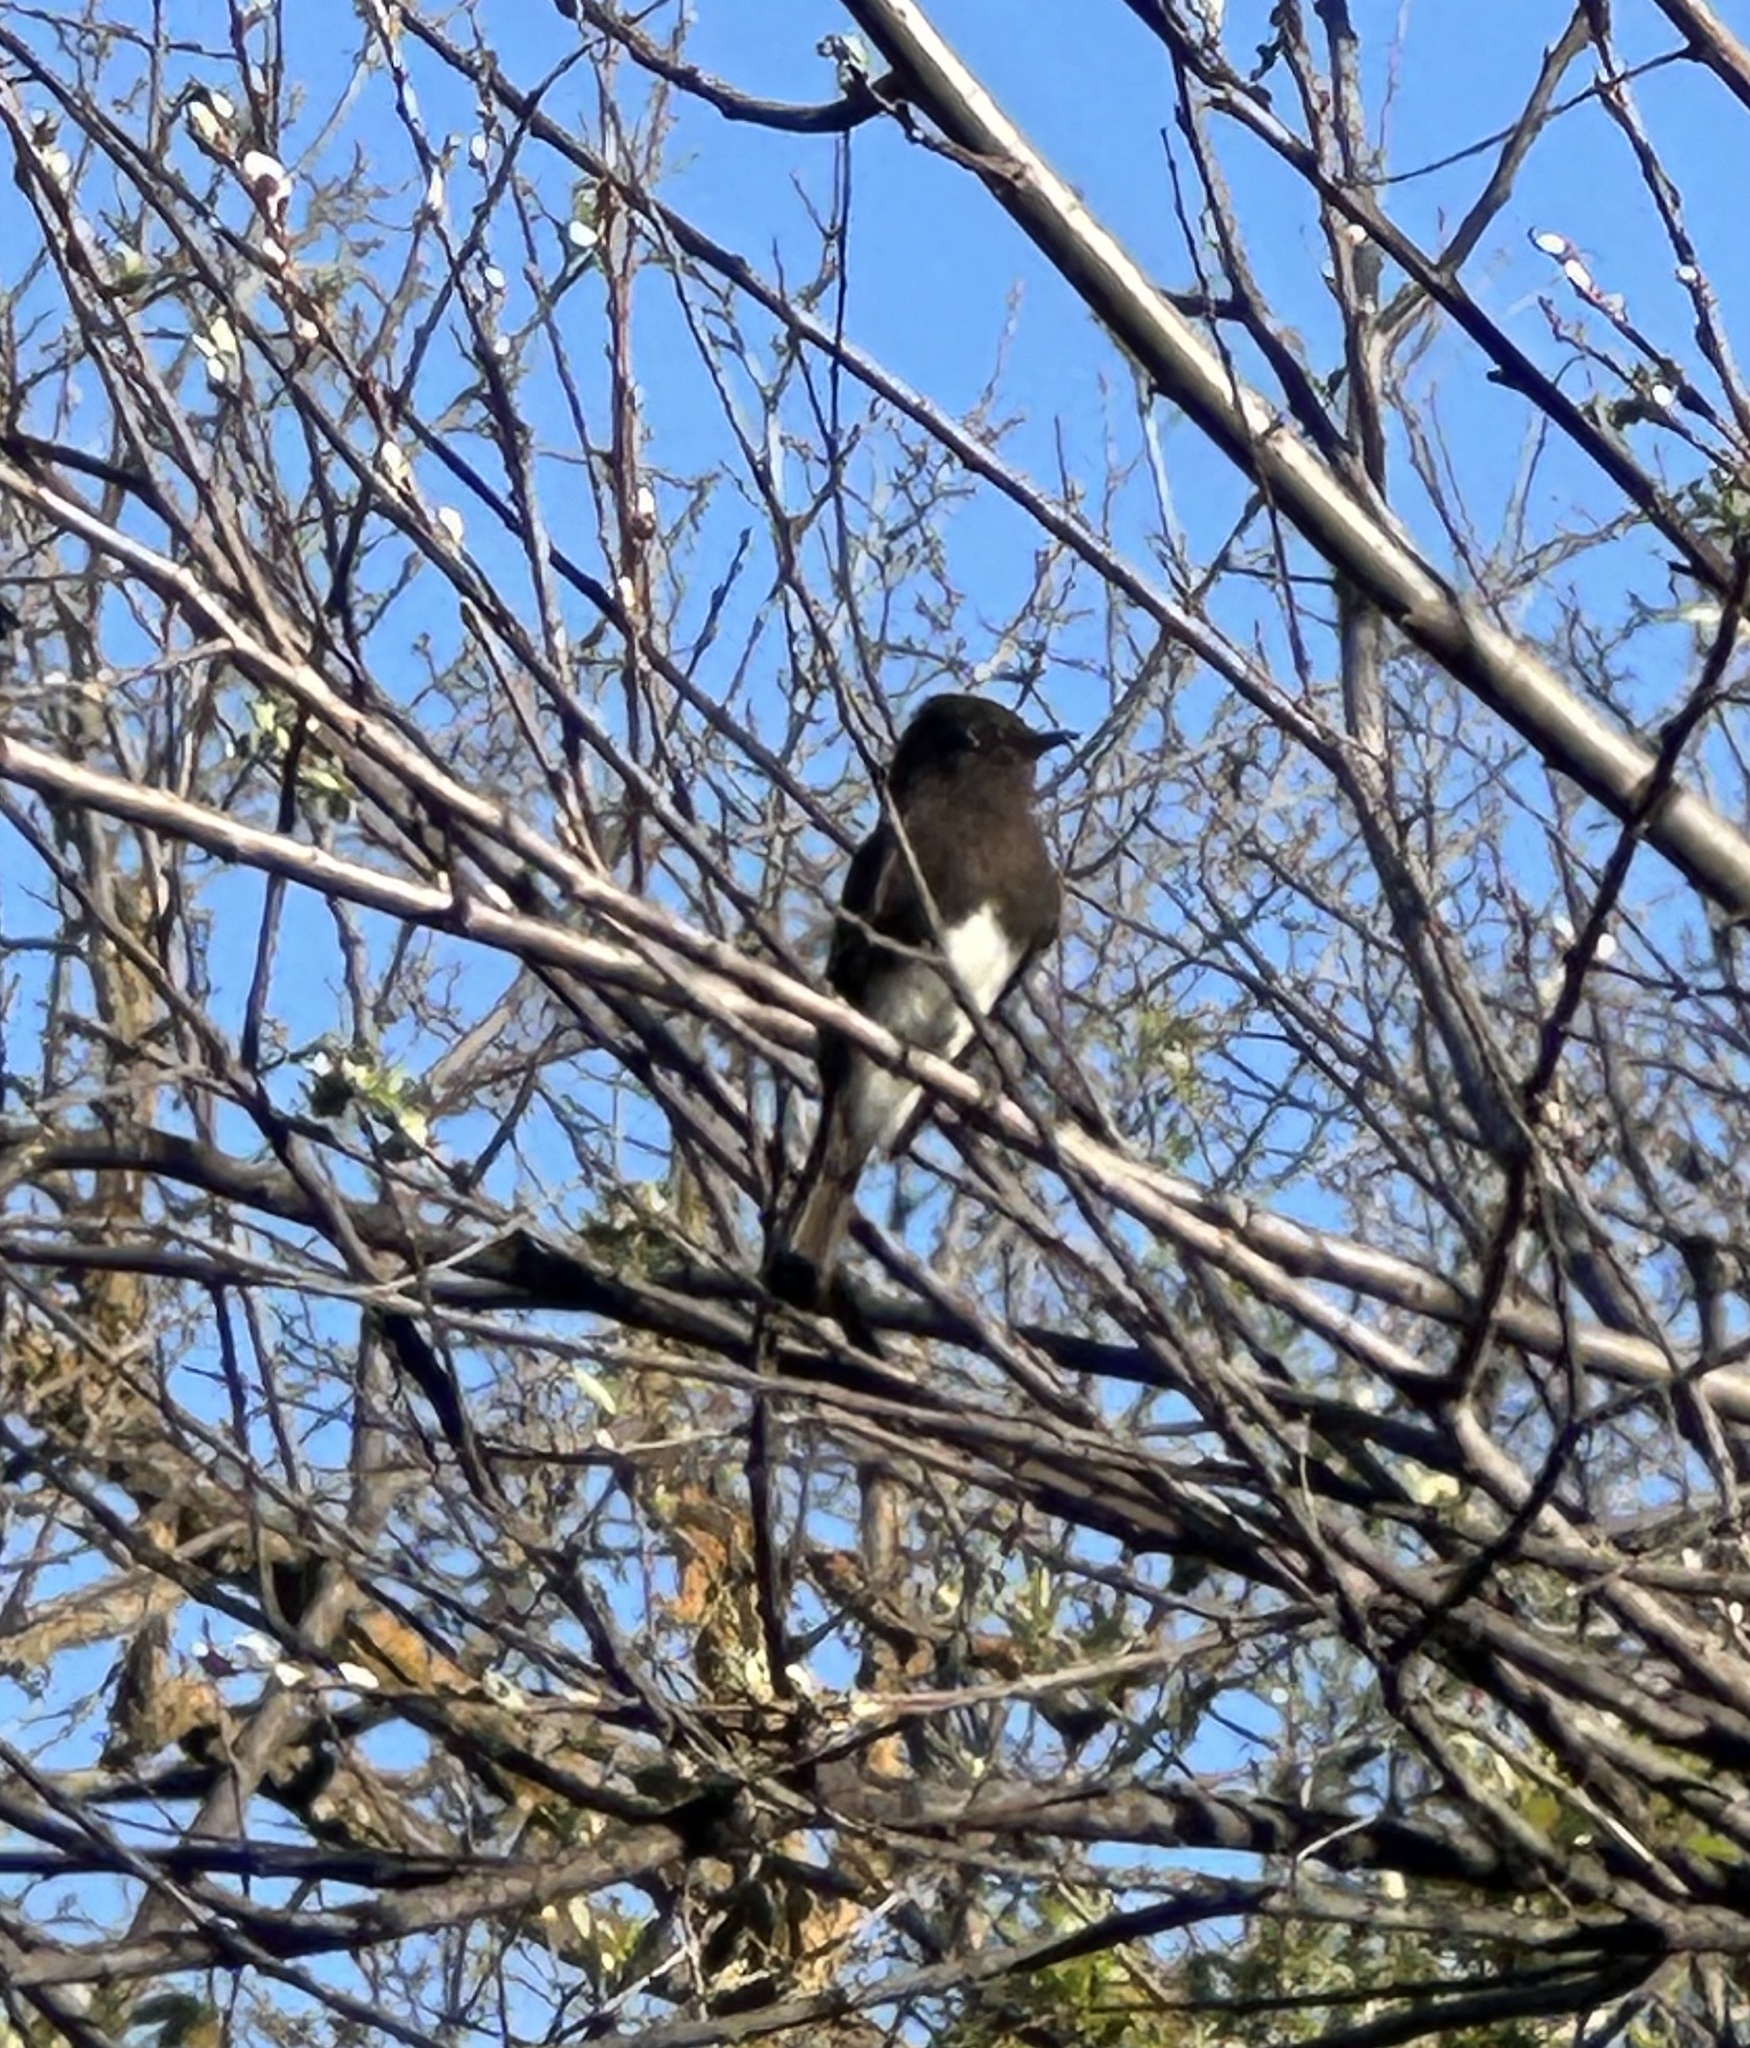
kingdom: Animalia
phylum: Chordata
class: Aves
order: Passeriformes
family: Tyrannidae
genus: Sayornis
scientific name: Sayornis nigricans
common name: Black phoebe
